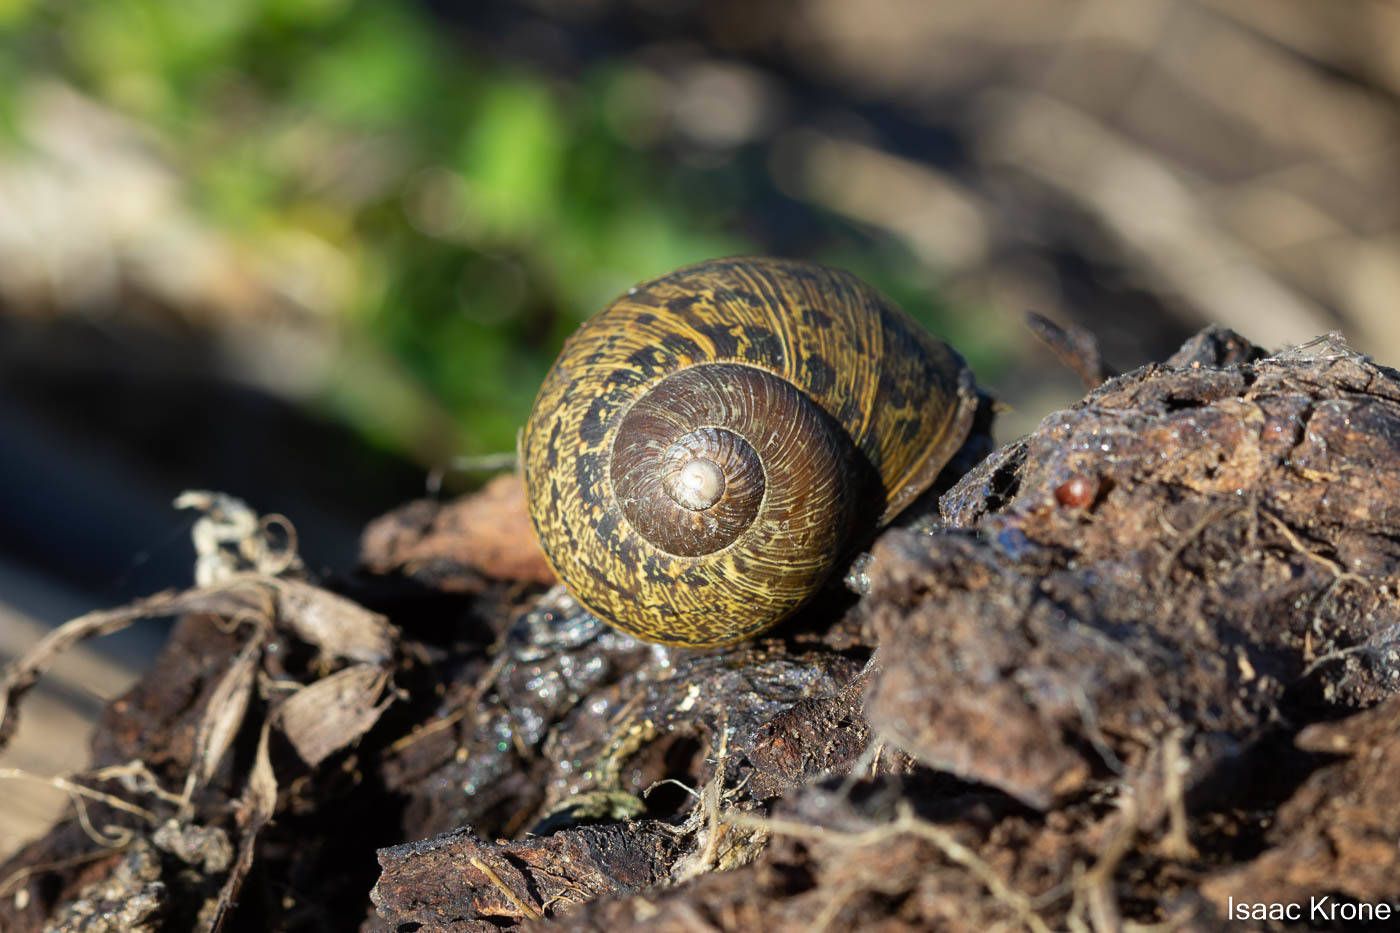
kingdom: Animalia
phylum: Mollusca
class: Gastropoda
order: Stylommatophora
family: Helicidae
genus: Cornu
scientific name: Cornu aspersum
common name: Brown garden snail
